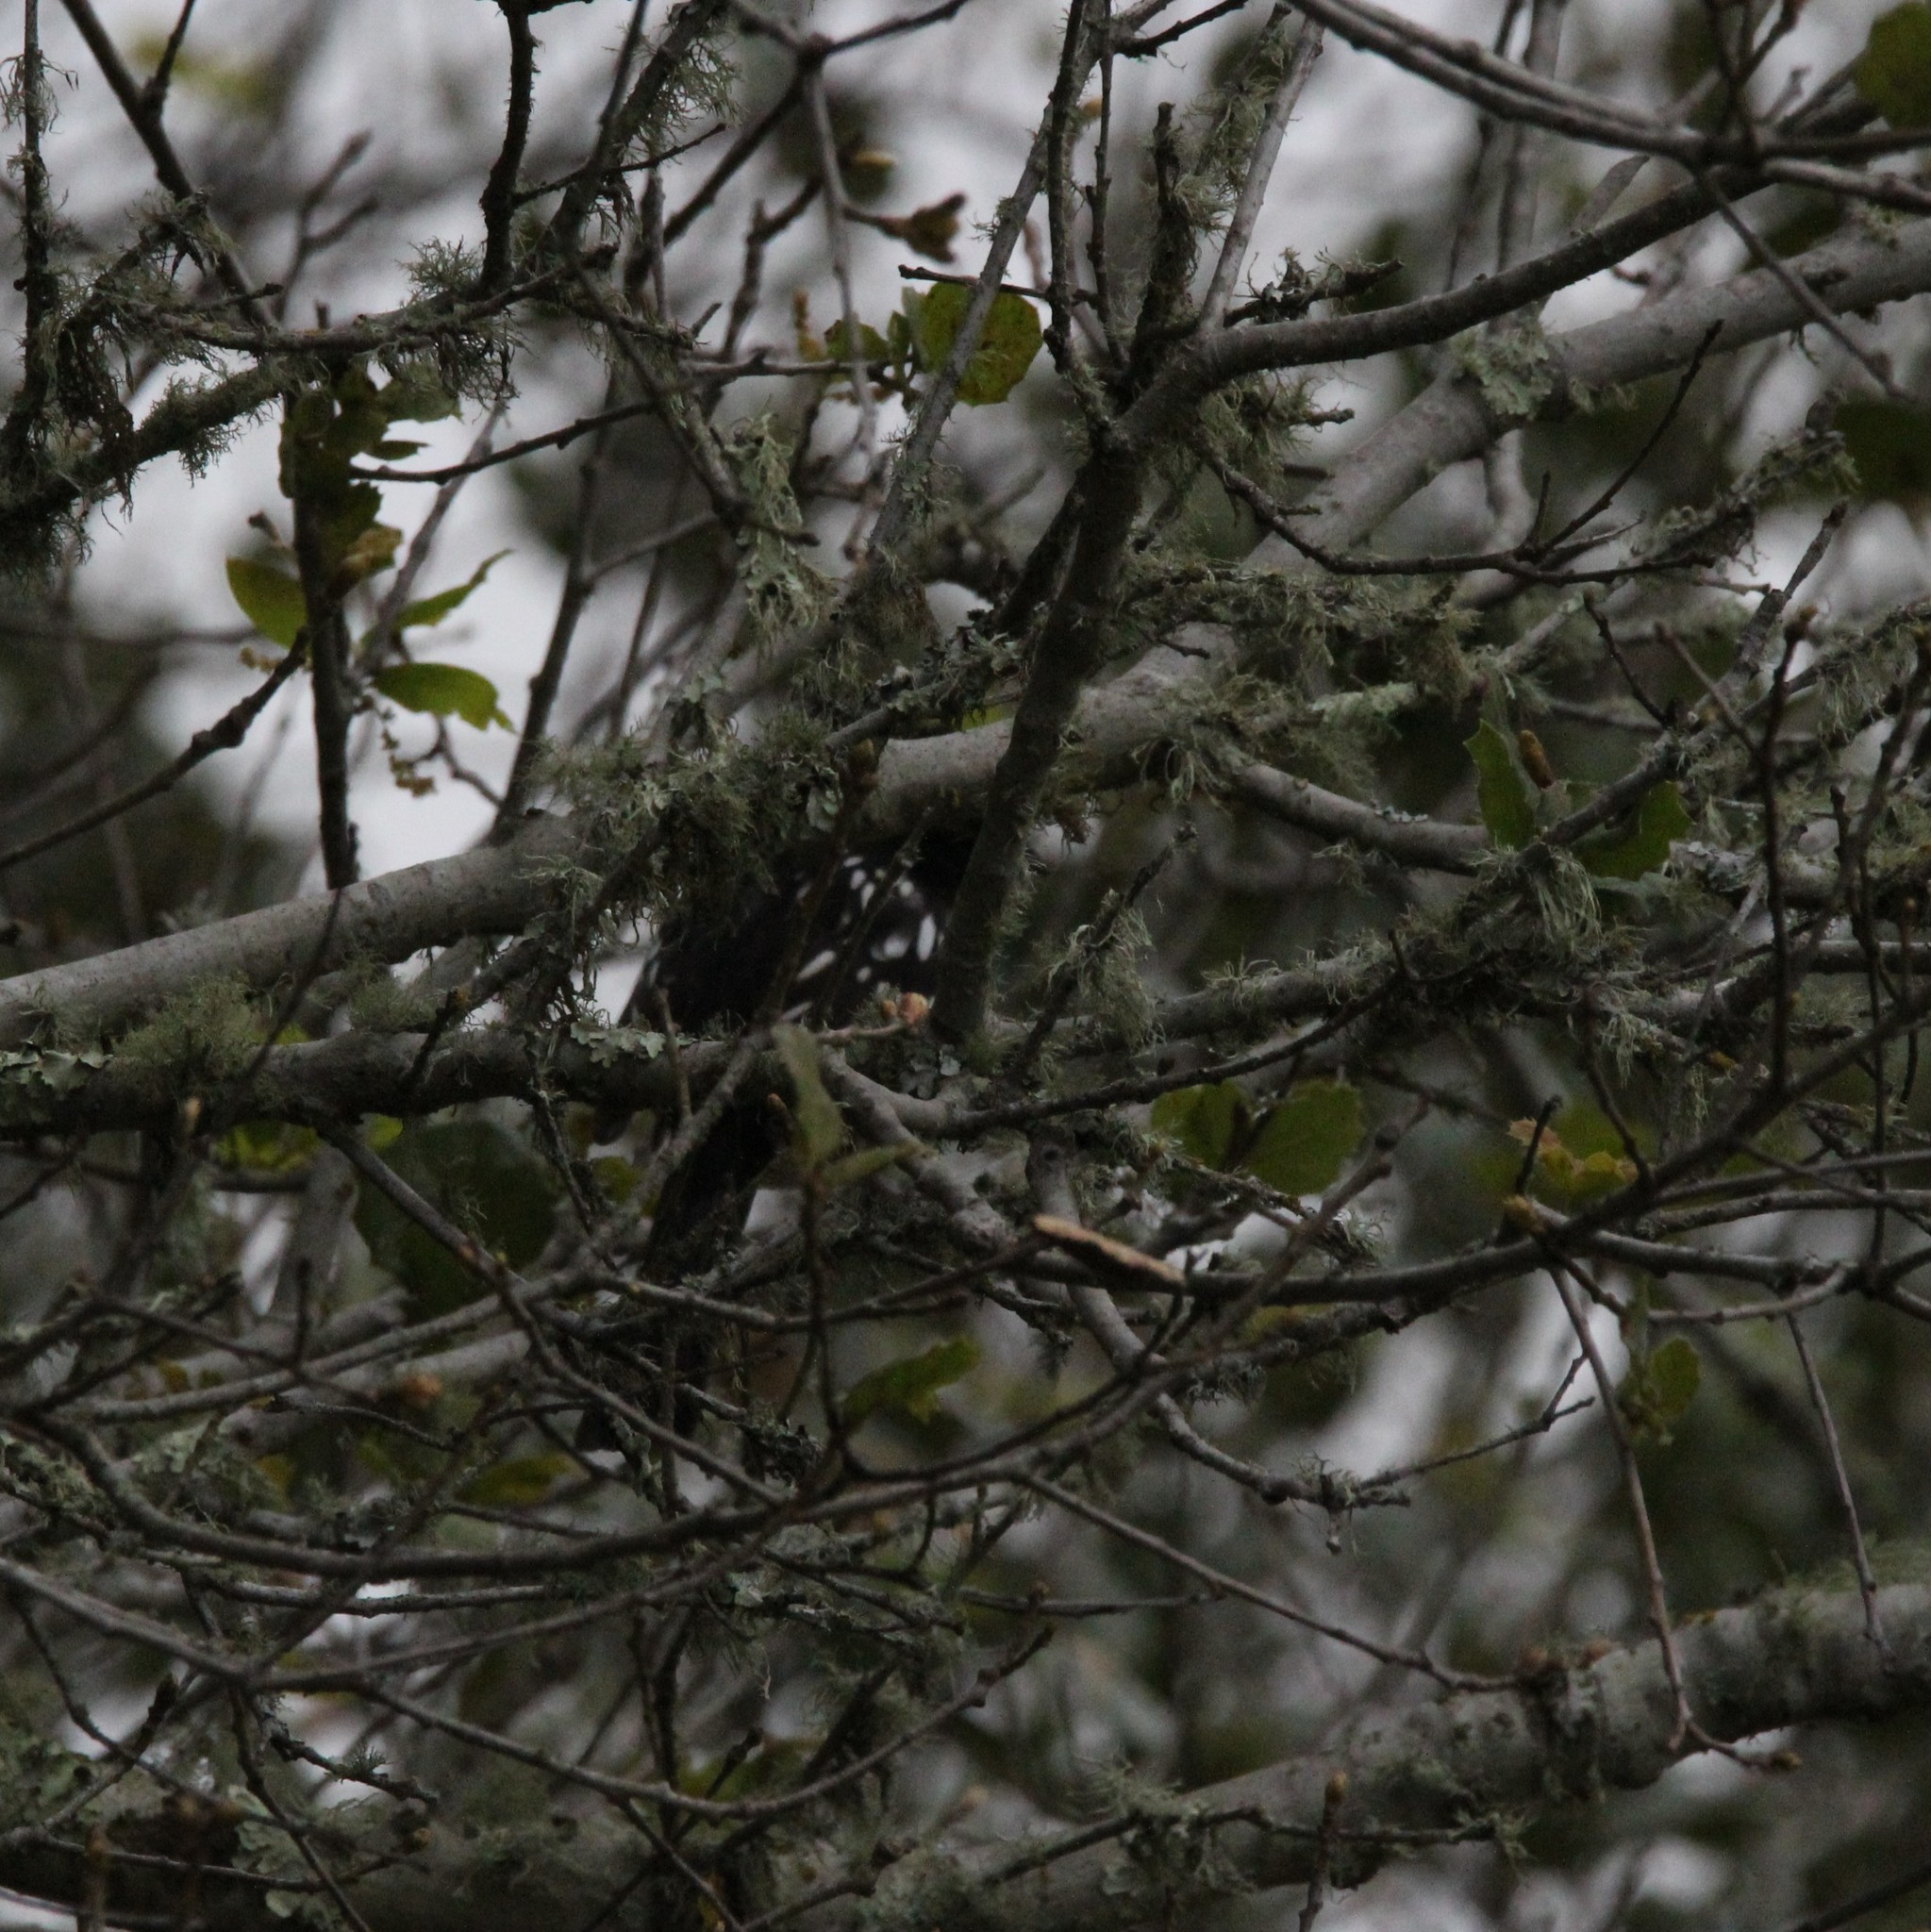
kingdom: Animalia
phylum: Chordata
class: Aves
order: Passeriformes
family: Passerellidae
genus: Pipilo
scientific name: Pipilo maculatus
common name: Spotted towhee
